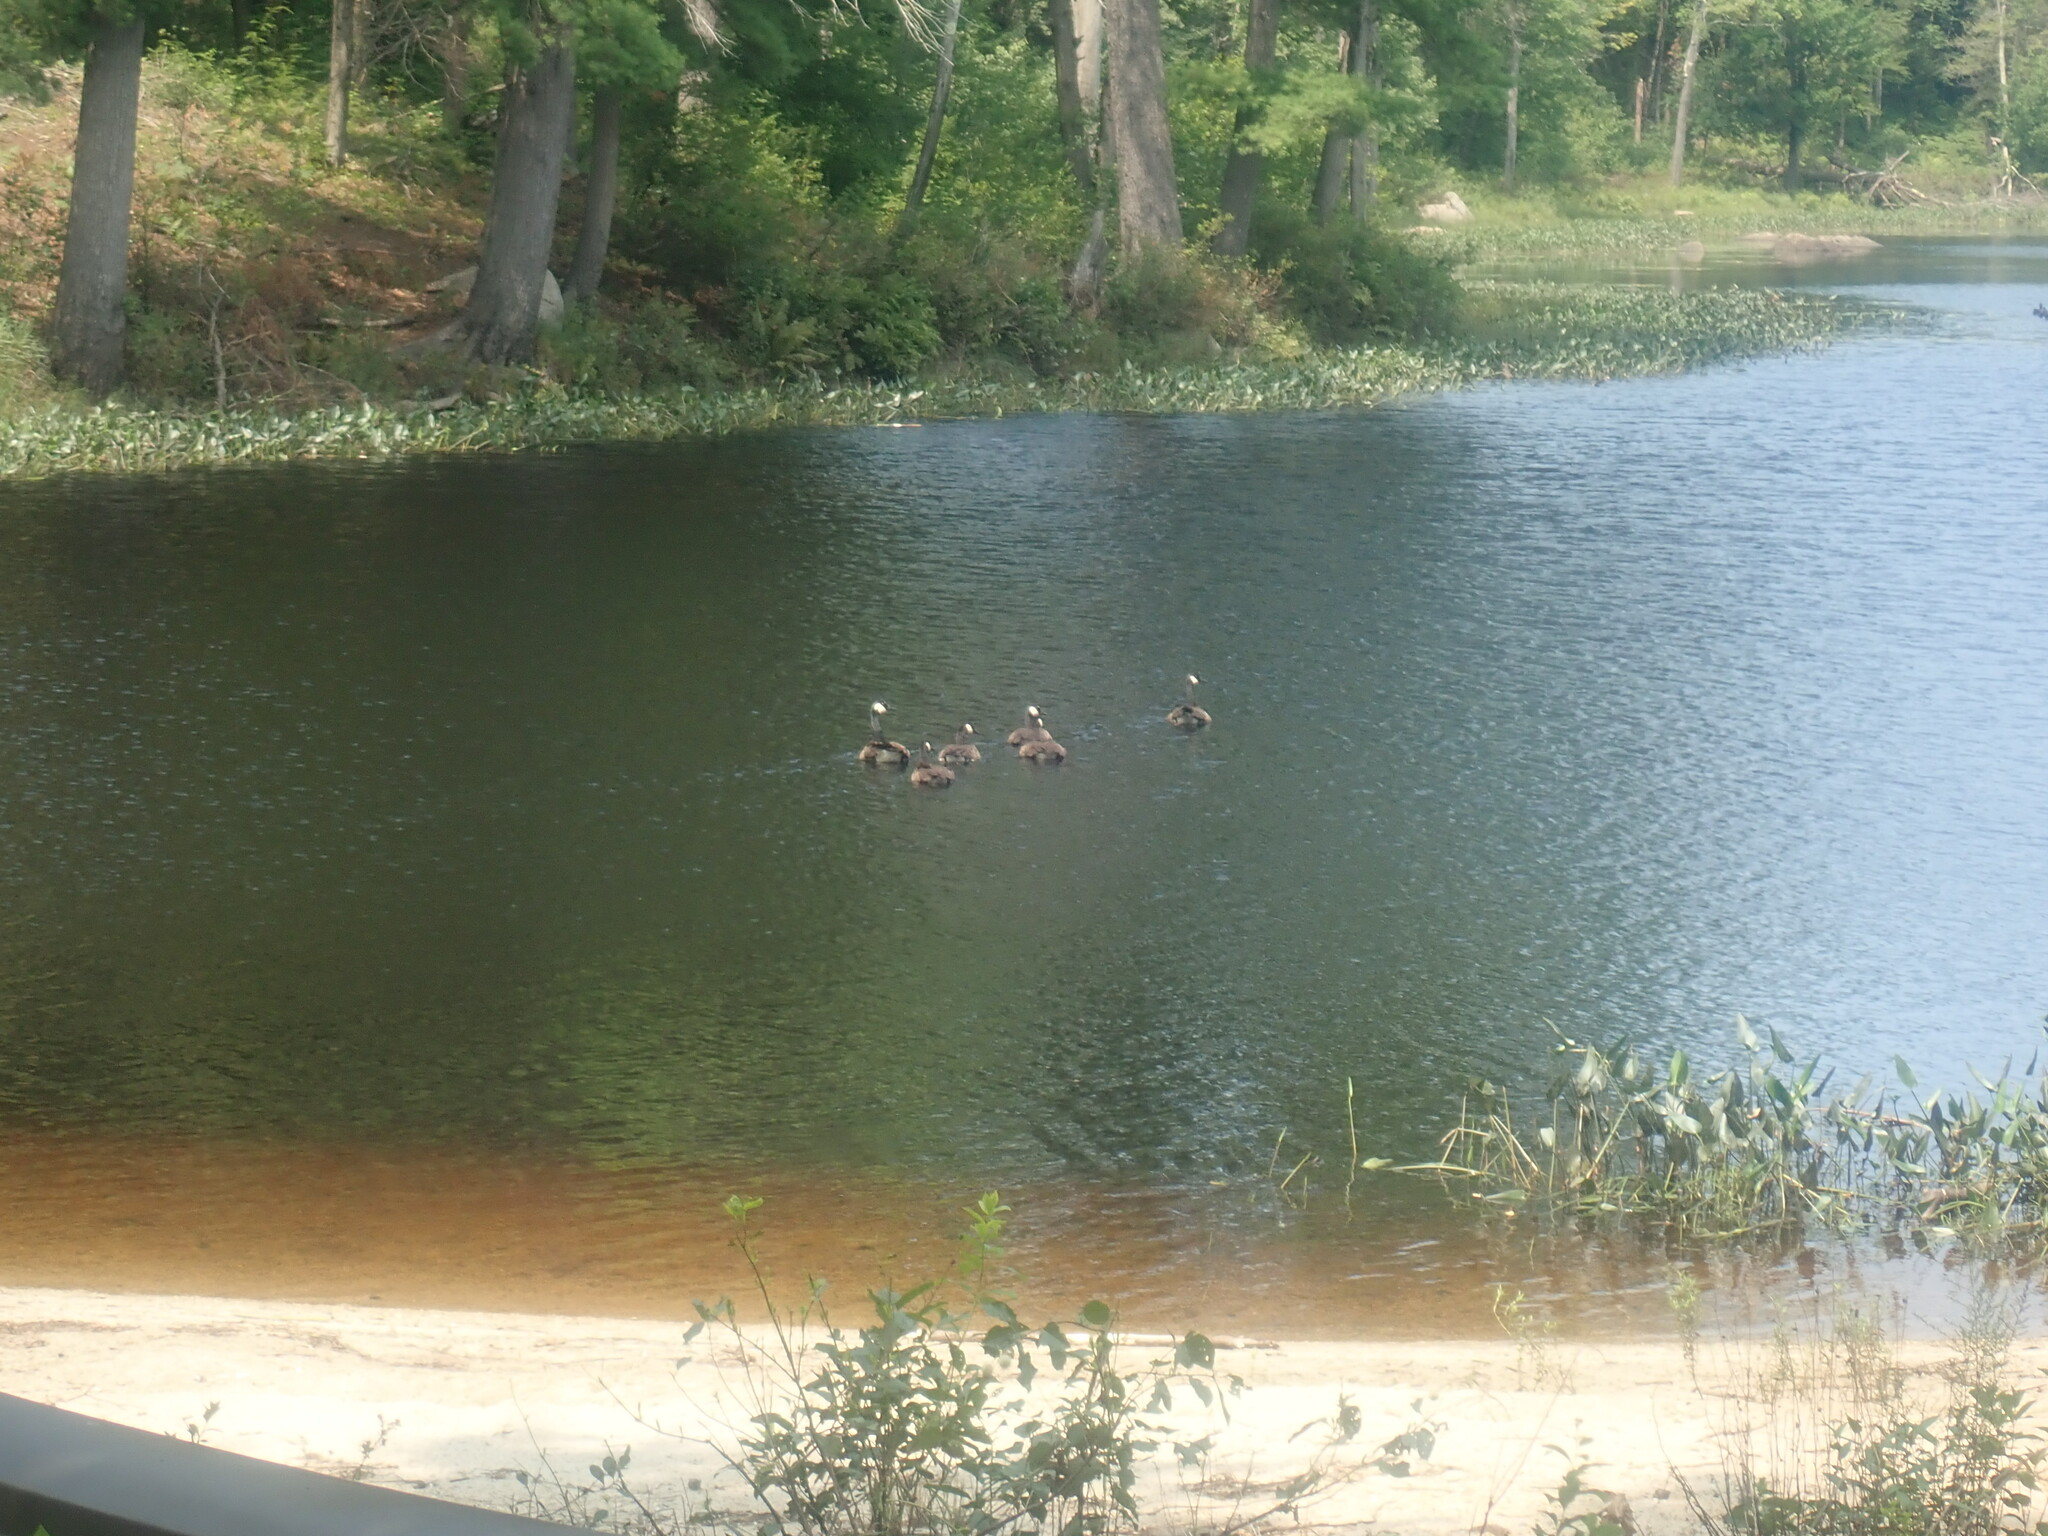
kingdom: Animalia
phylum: Chordata
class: Aves
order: Anseriformes
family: Anatidae
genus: Branta
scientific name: Branta canadensis
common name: Canada goose
